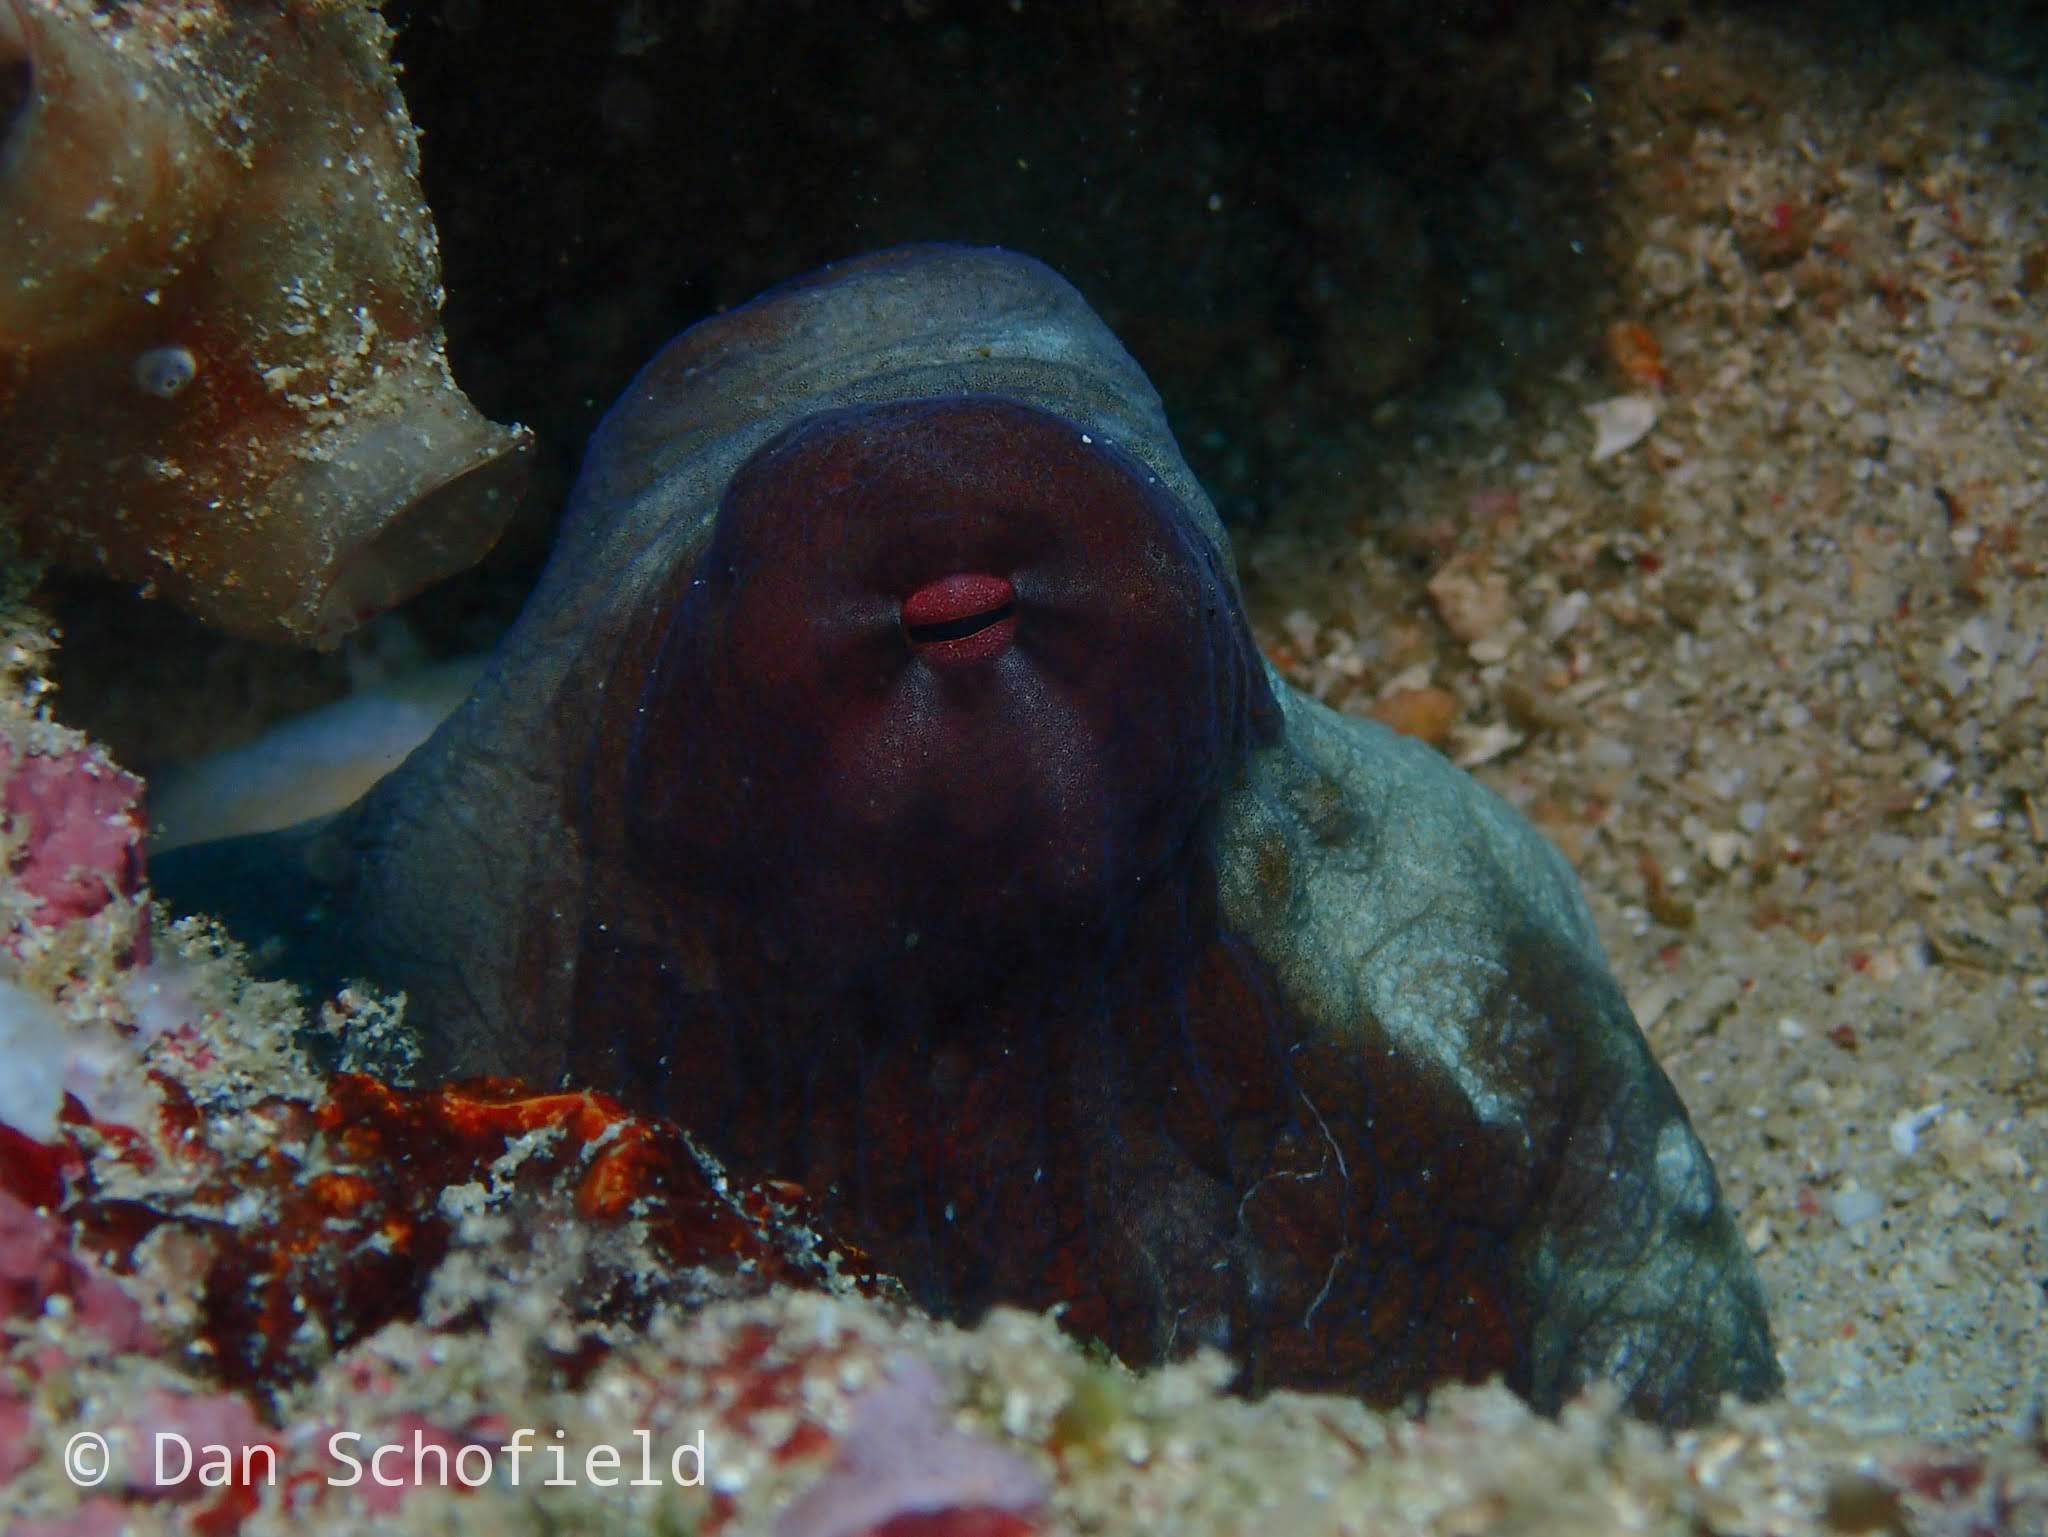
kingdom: Animalia
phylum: Mollusca
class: Cephalopoda
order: Octopoda
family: Octopodidae
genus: Octopus
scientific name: Octopus cyanea
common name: Cyane's octopus
